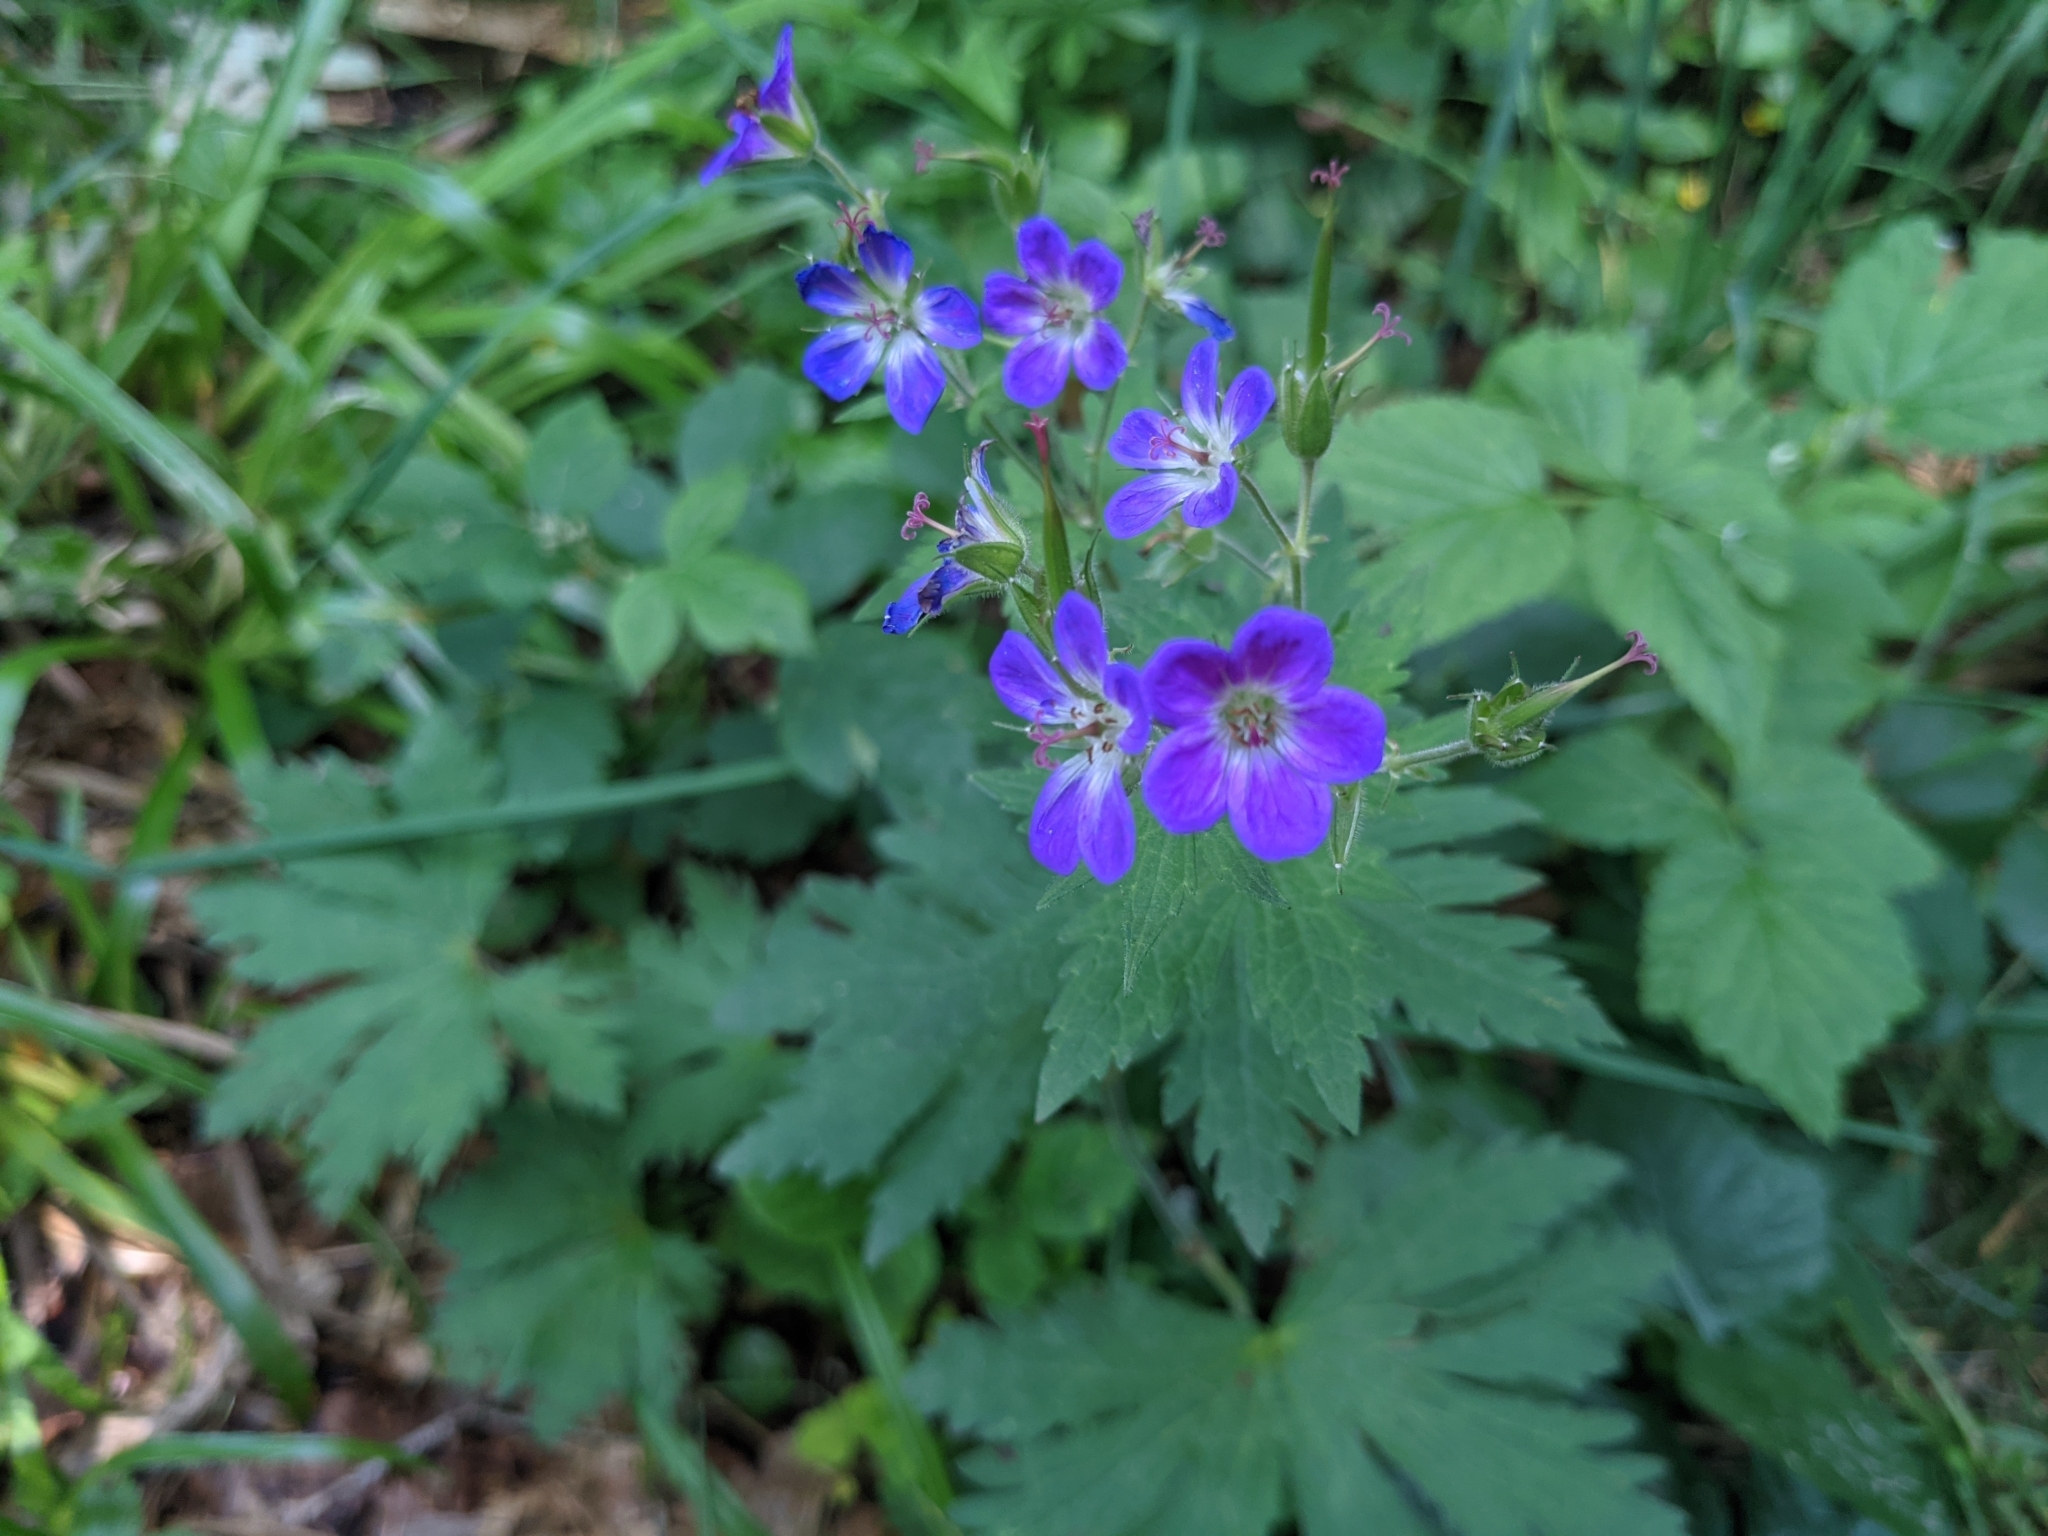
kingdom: Plantae
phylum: Tracheophyta
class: Magnoliopsida
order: Geraniales
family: Geraniaceae
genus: Geranium
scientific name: Geranium sylvaticum
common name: Wood crane's-bill
